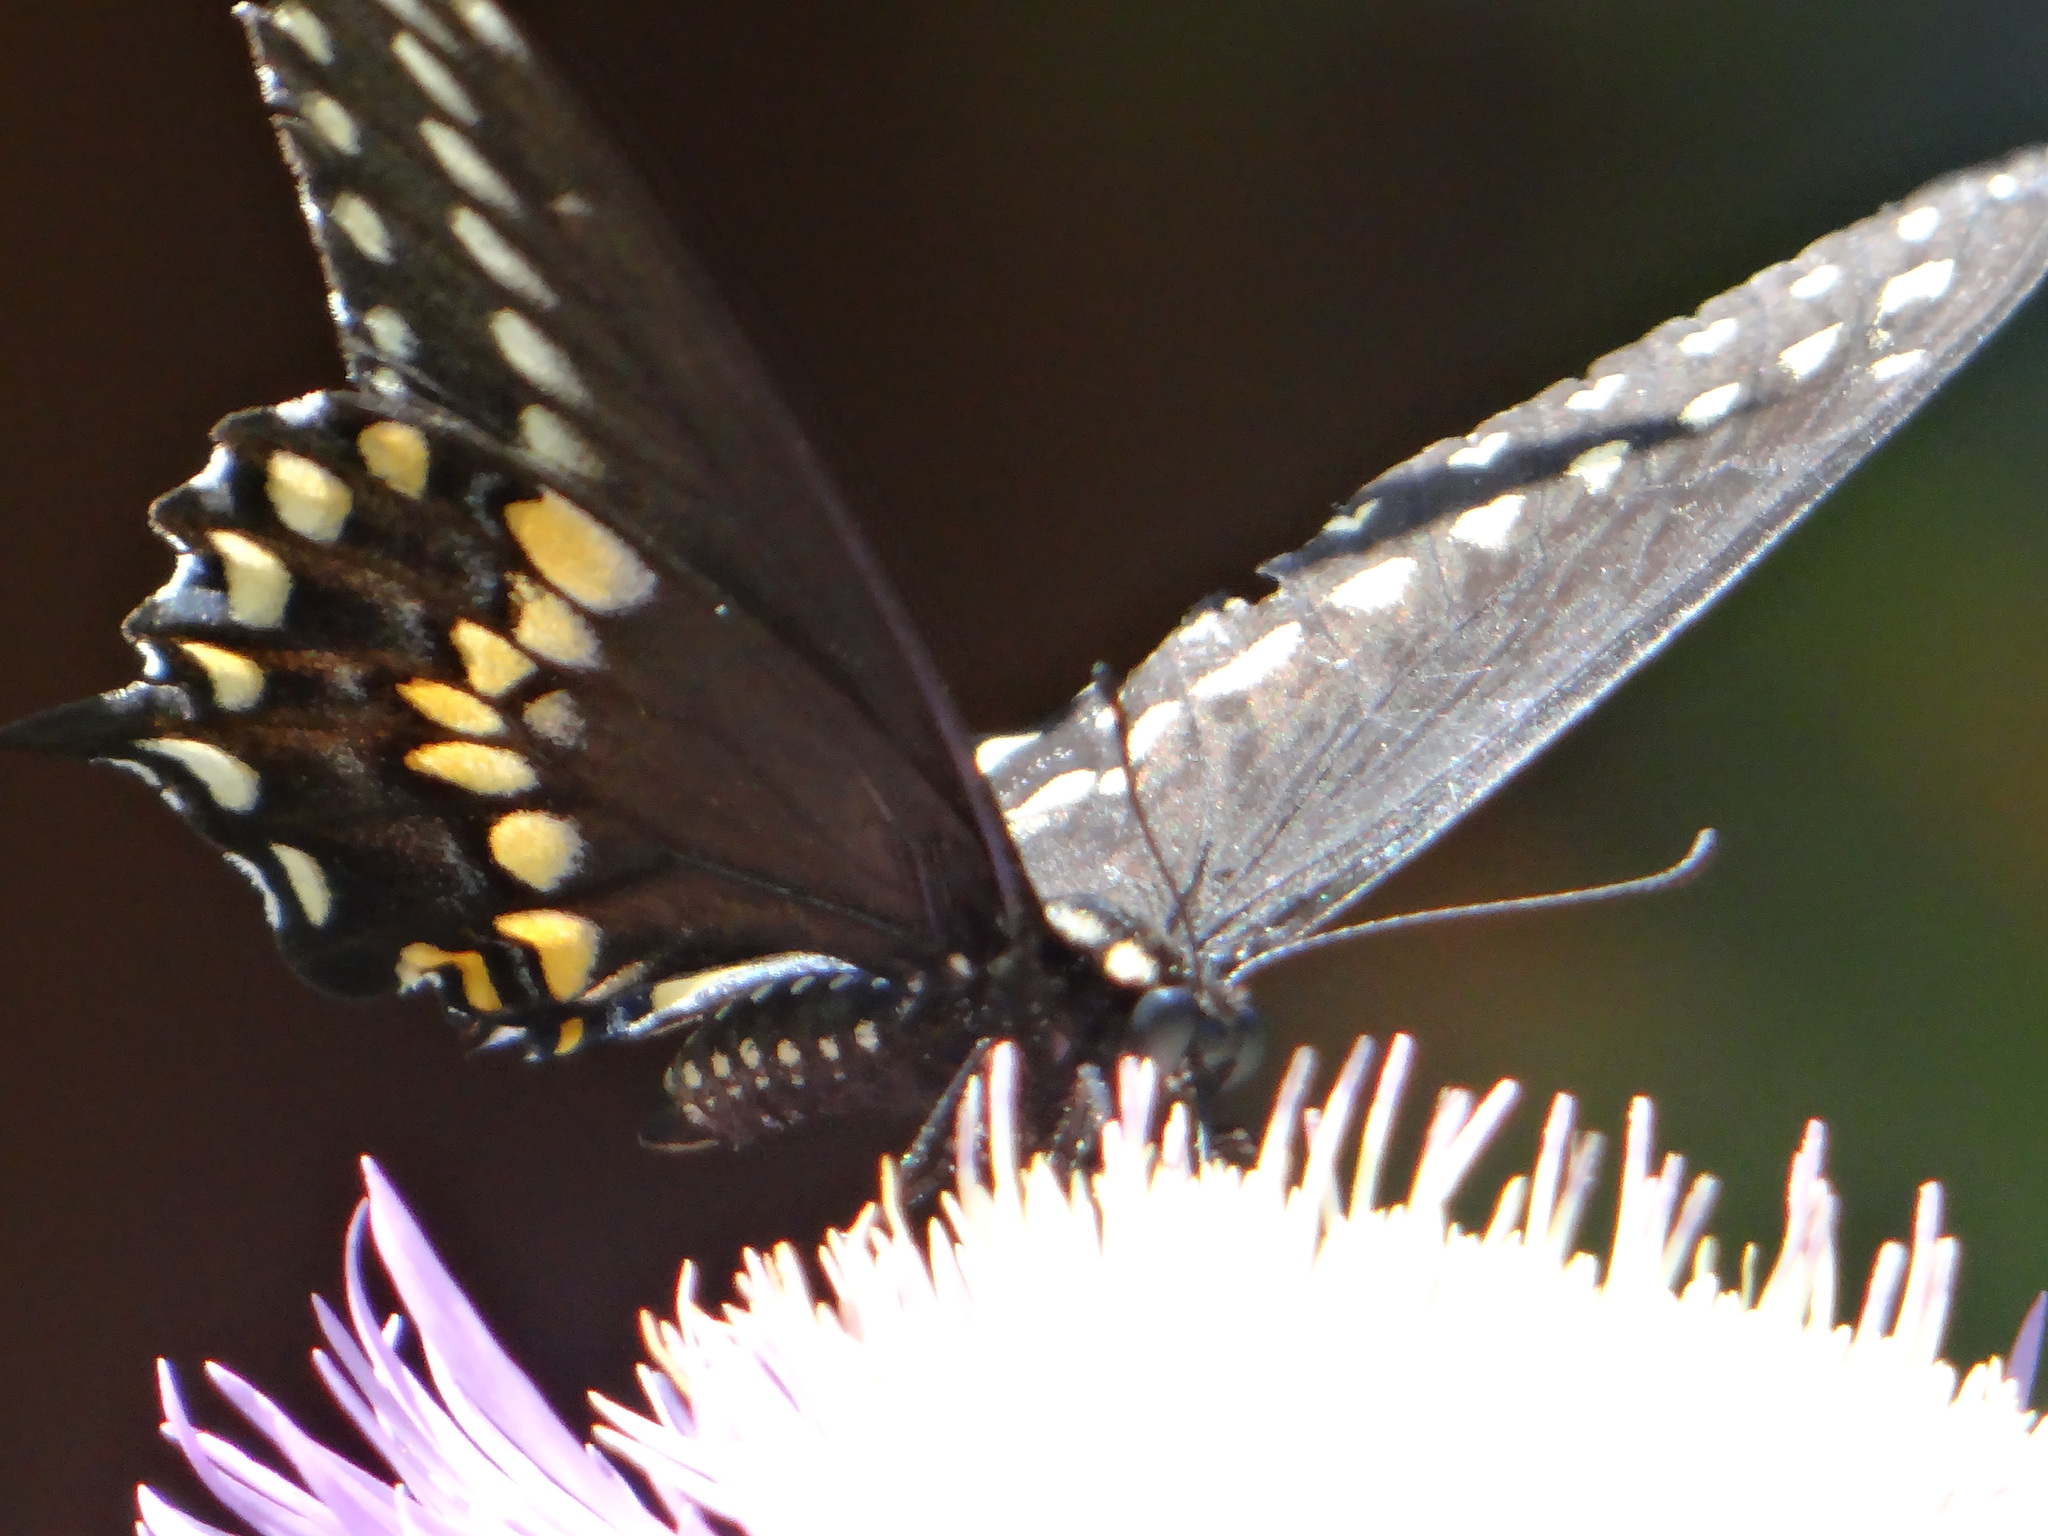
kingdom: Animalia
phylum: Arthropoda
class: Insecta
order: Lepidoptera
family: Papilionidae
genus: Papilio
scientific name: Papilio polyxenes
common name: Black swallowtail
